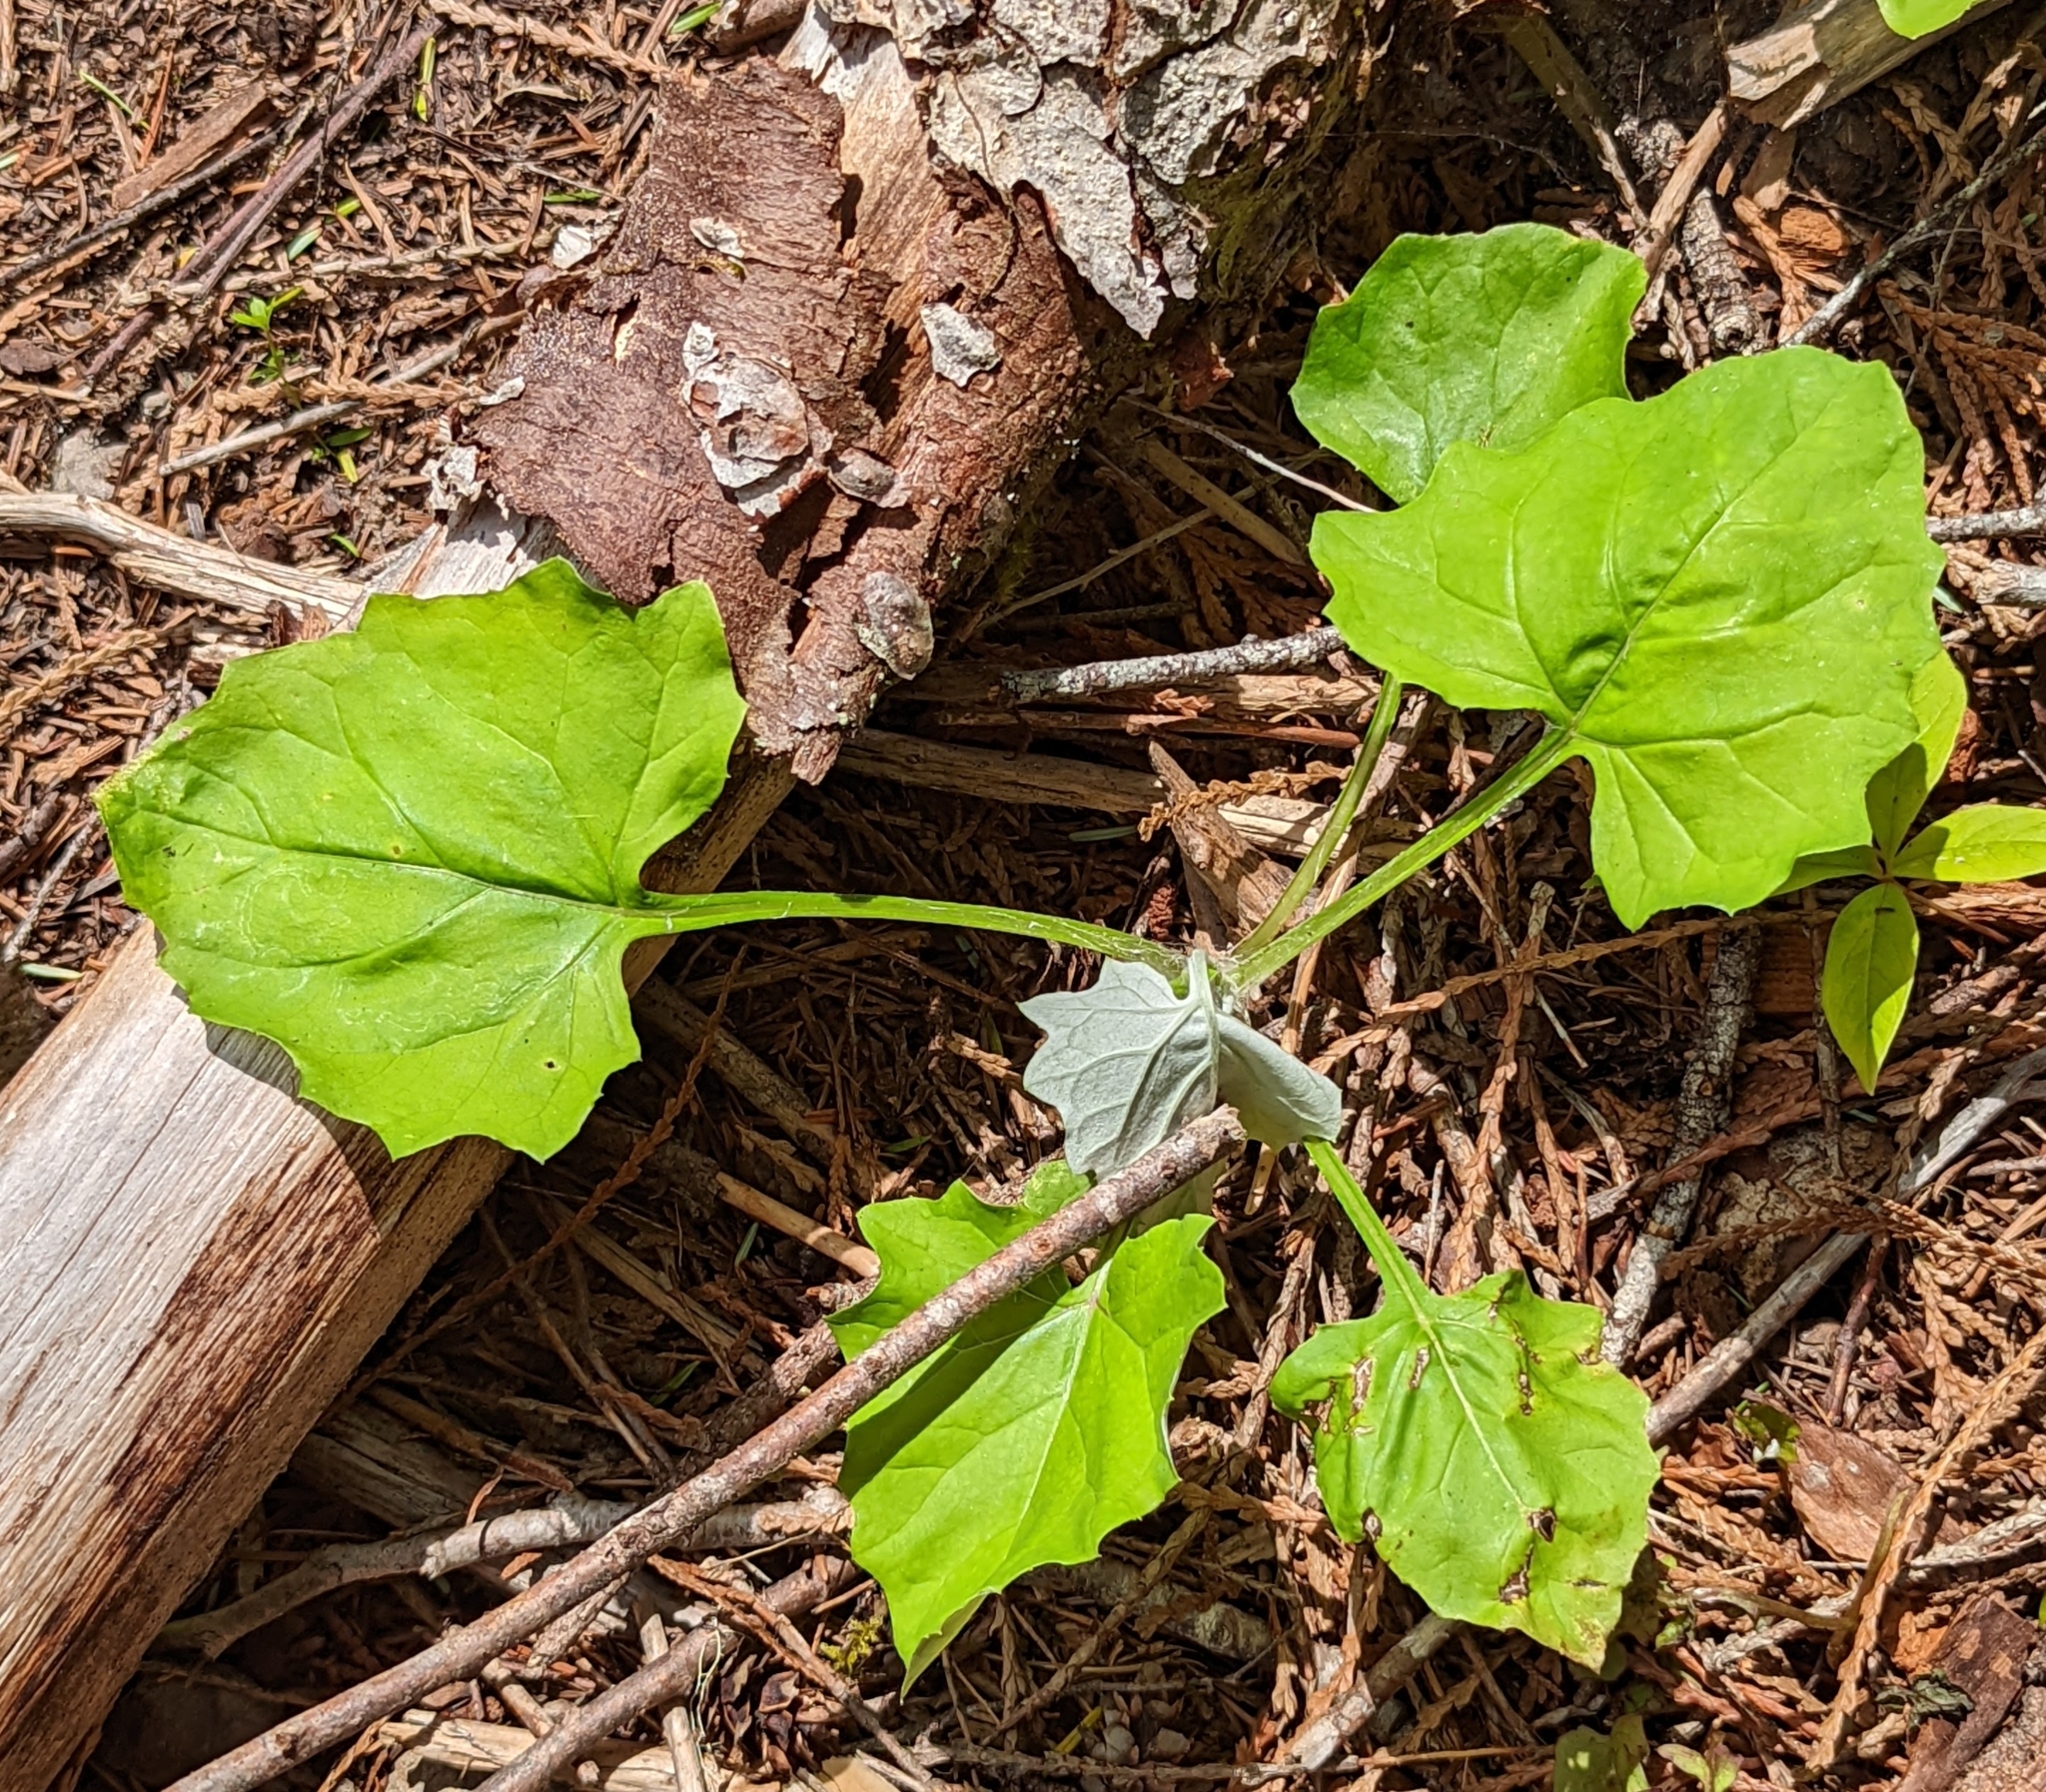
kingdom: Plantae
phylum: Tracheophyta
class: Magnoliopsida
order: Asterales
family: Asteraceae
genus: Adenocaulon
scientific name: Adenocaulon bicolor
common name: Trailplant
